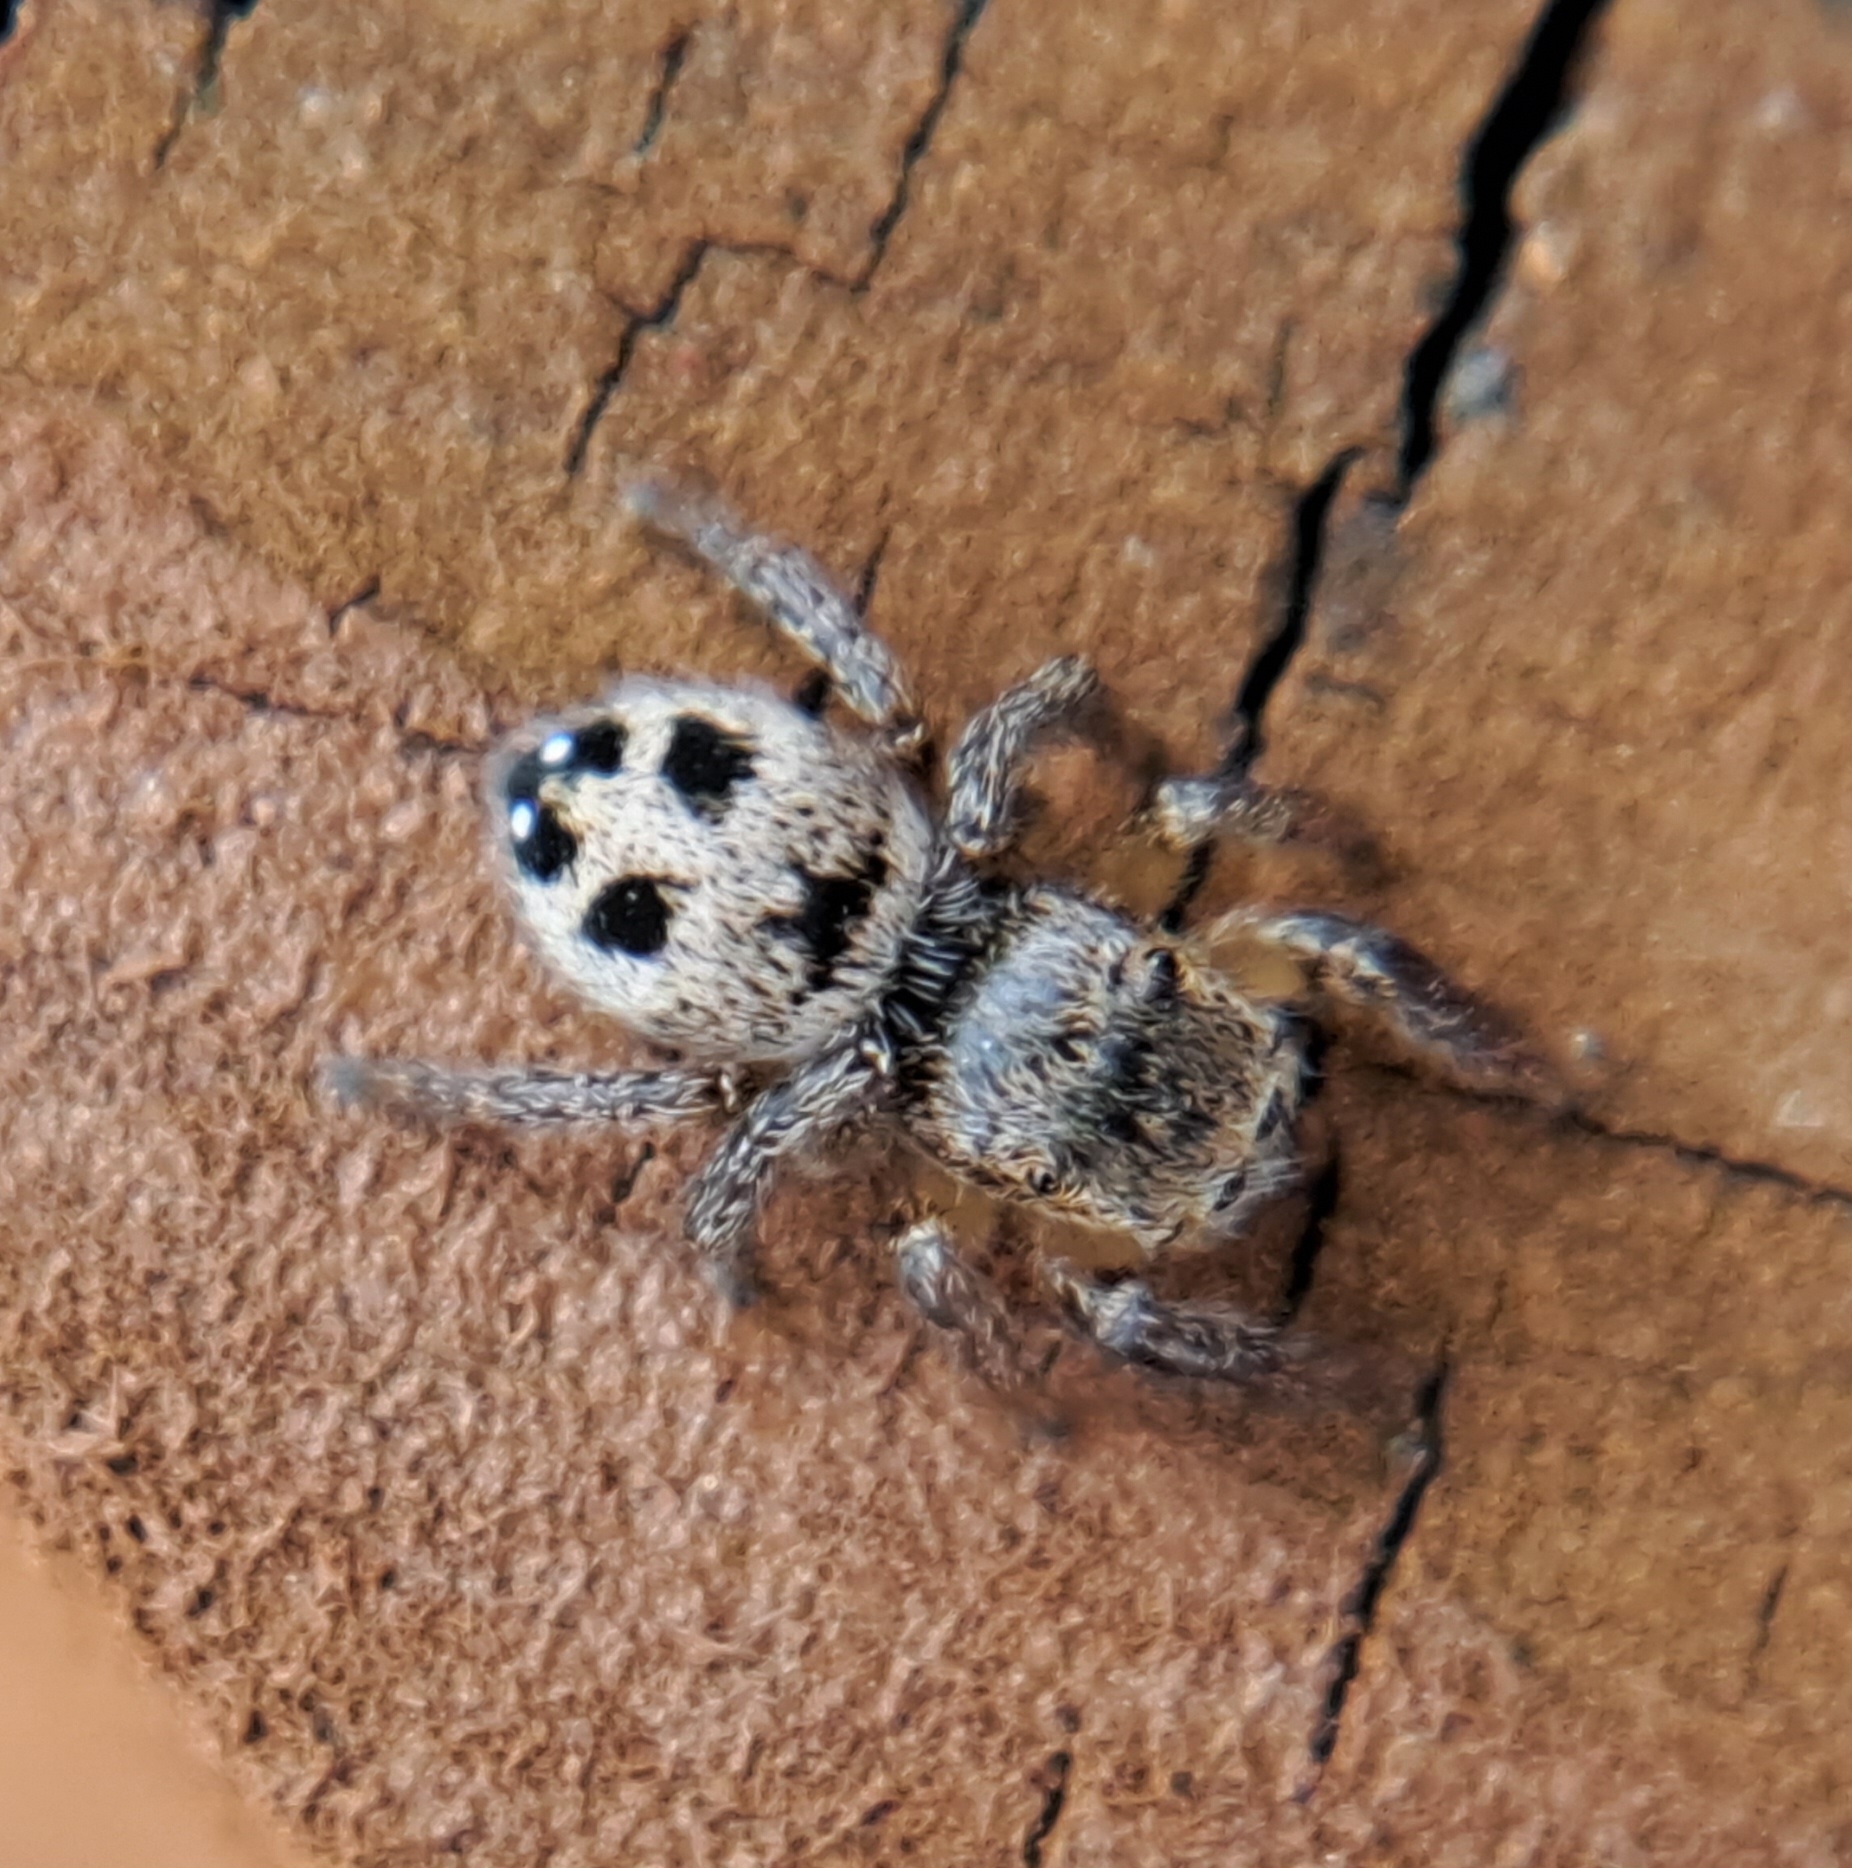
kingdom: Animalia
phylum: Arthropoda
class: Arachnida
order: Araneae
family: Salticidae
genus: Habronattus
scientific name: Habronattus decorus
